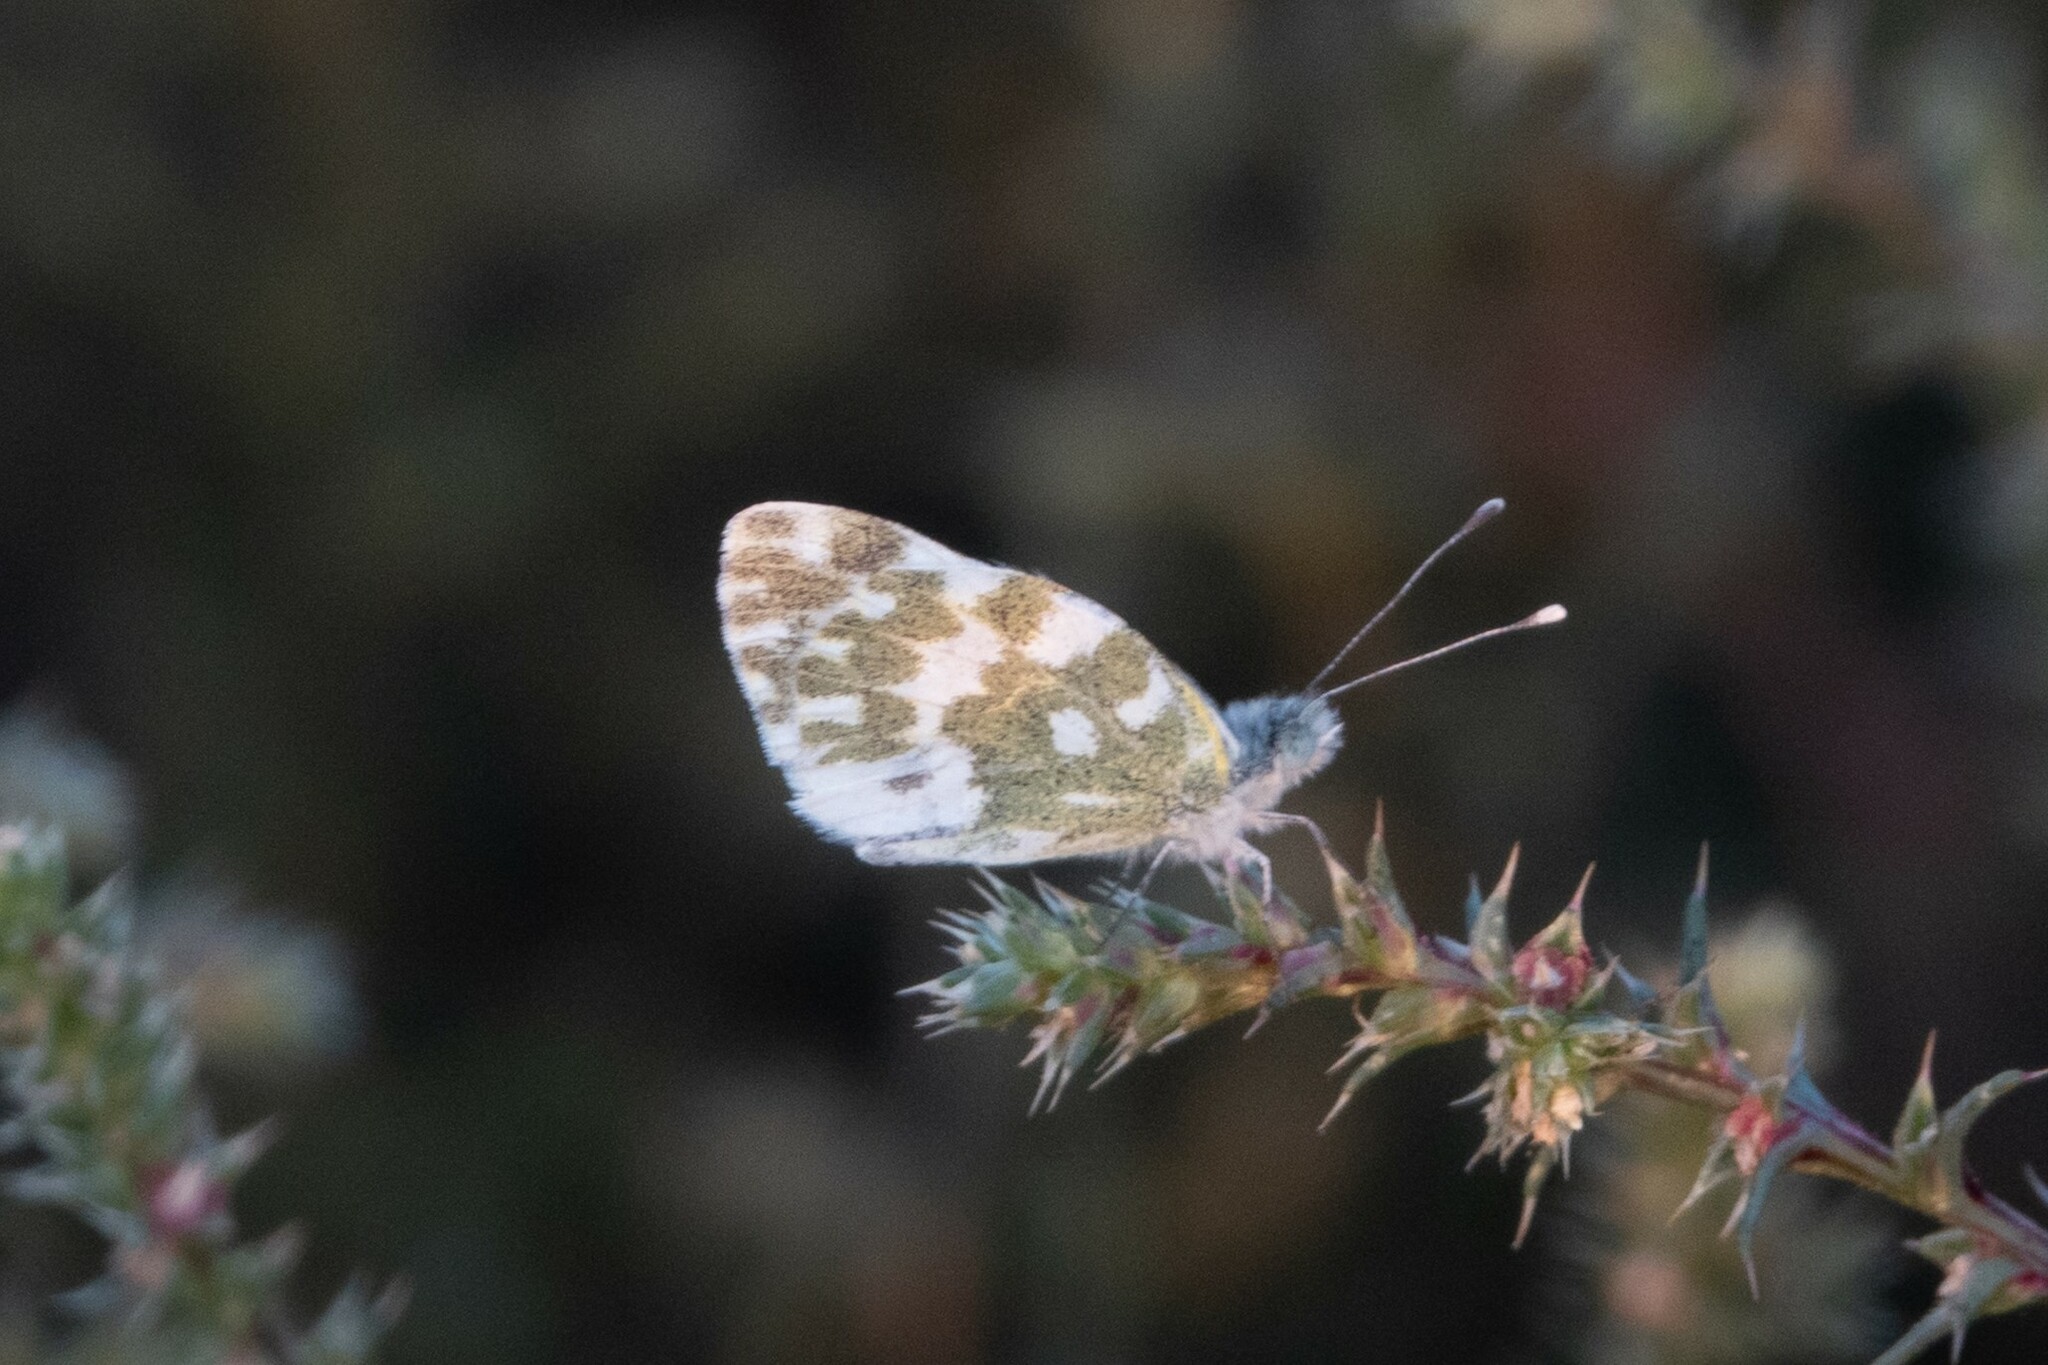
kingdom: Animalia
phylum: Arthropoda
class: Insecta
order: Lepidoptera
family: Pieridae
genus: Pontia
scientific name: Pontia edusa
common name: Eastern bath white
